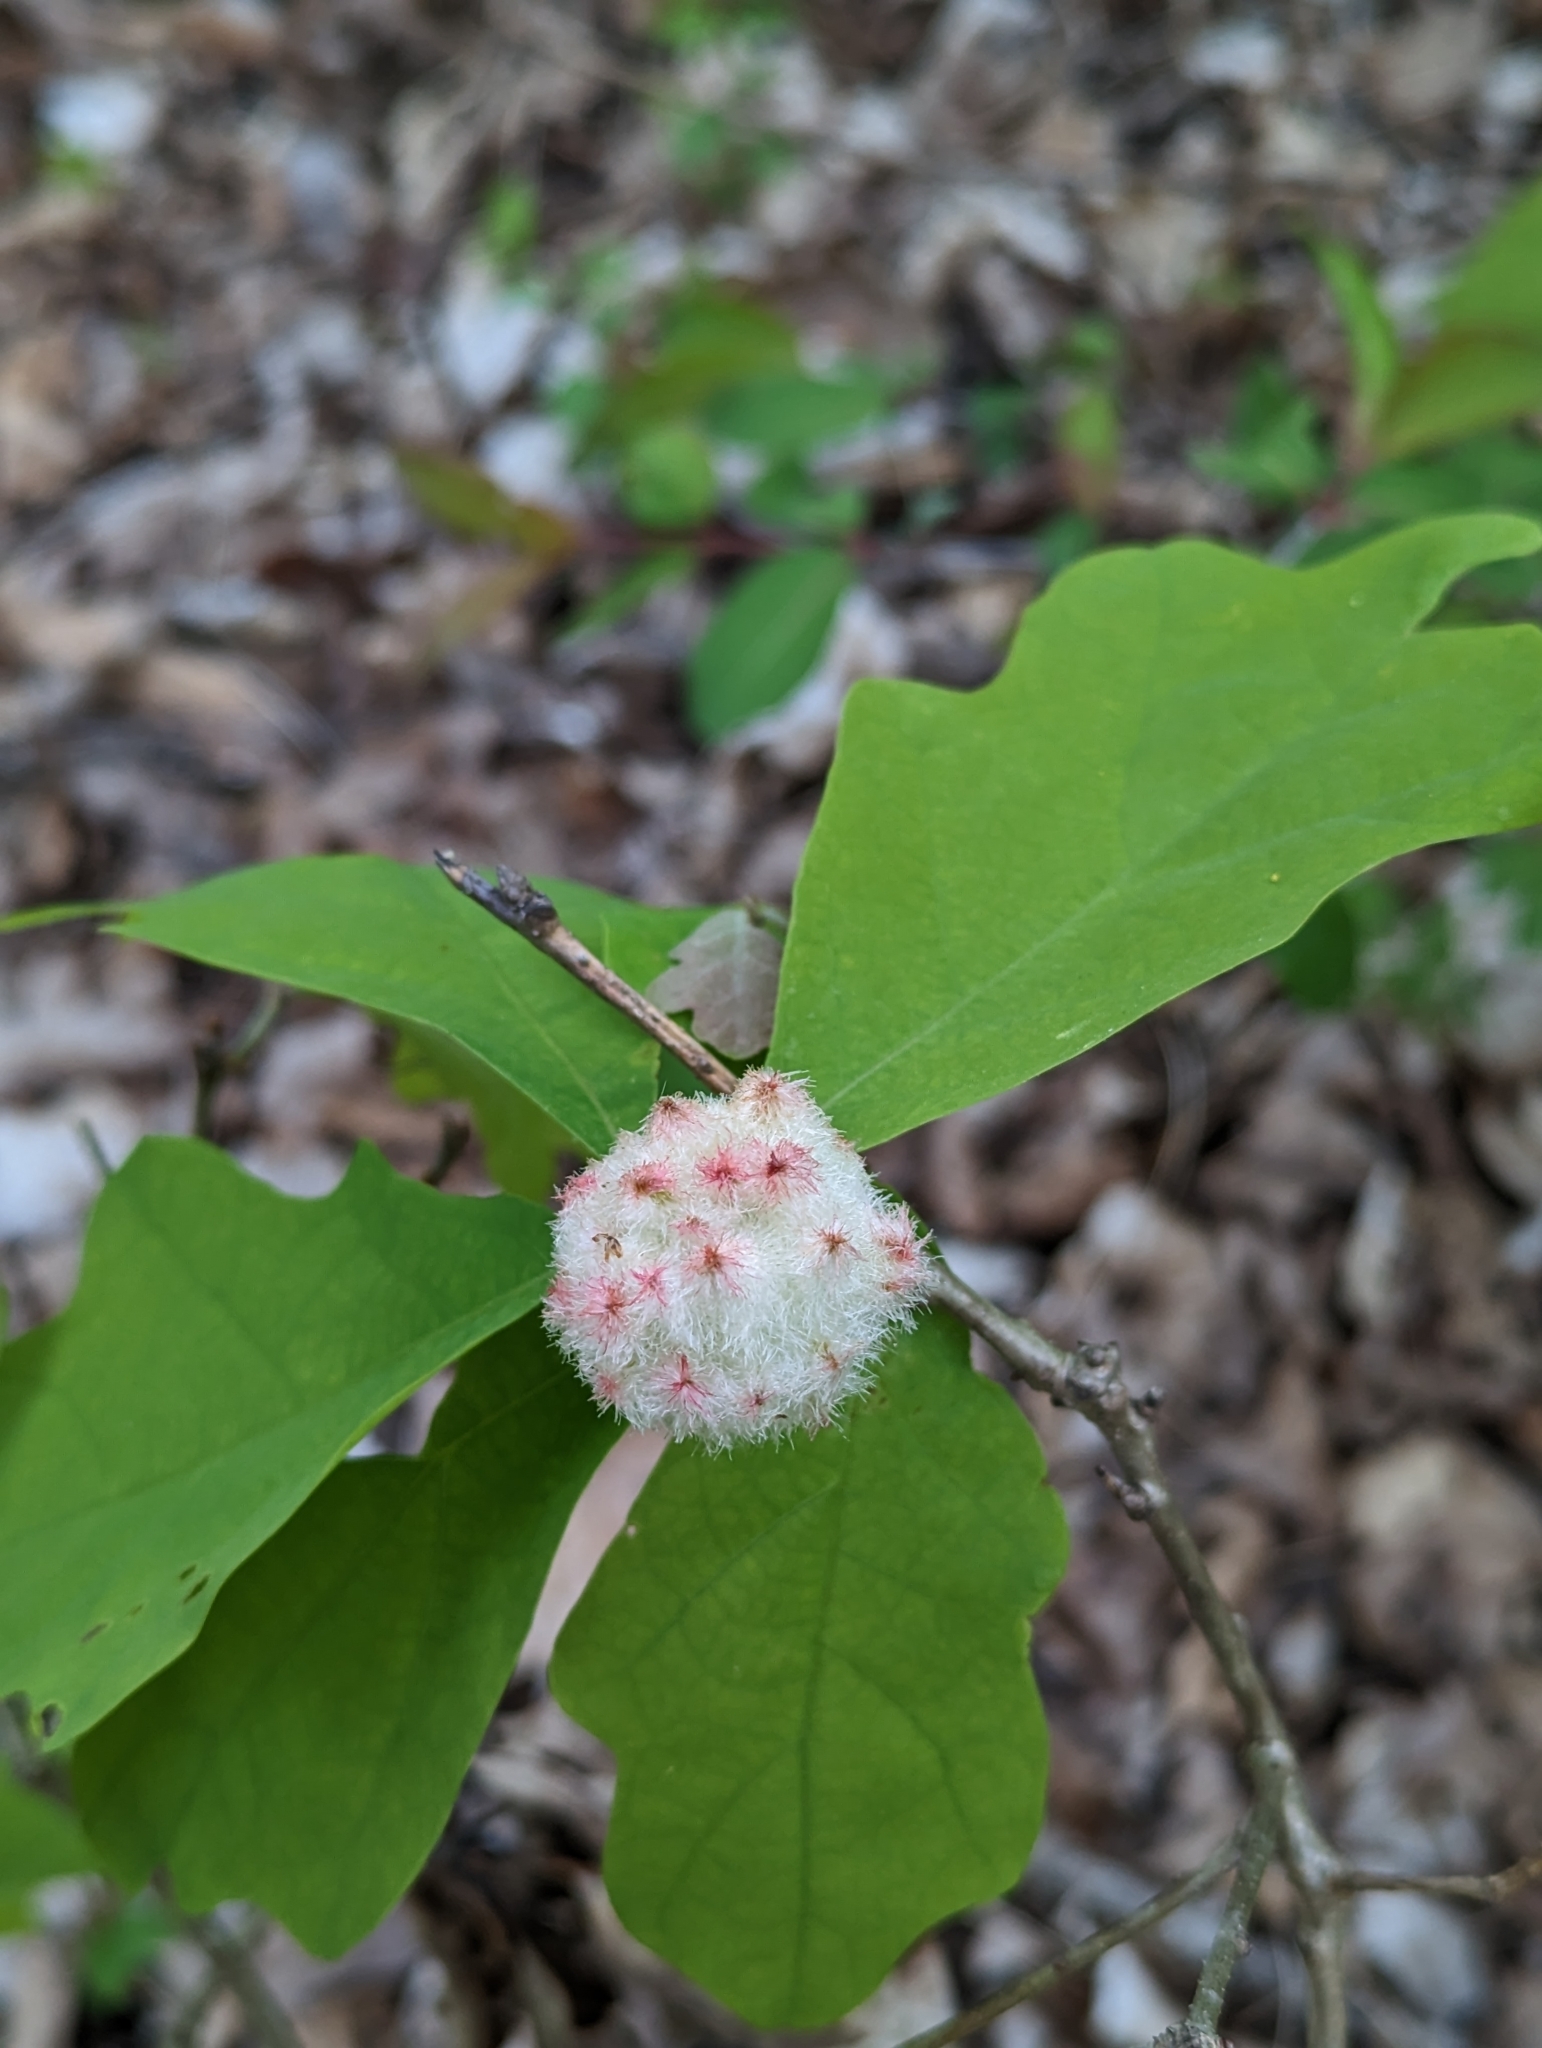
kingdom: Animalia
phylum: Arthropoda
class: Insecta
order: Hymenoptera
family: Cynipidae
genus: Callirhytis
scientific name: Callirhytis
